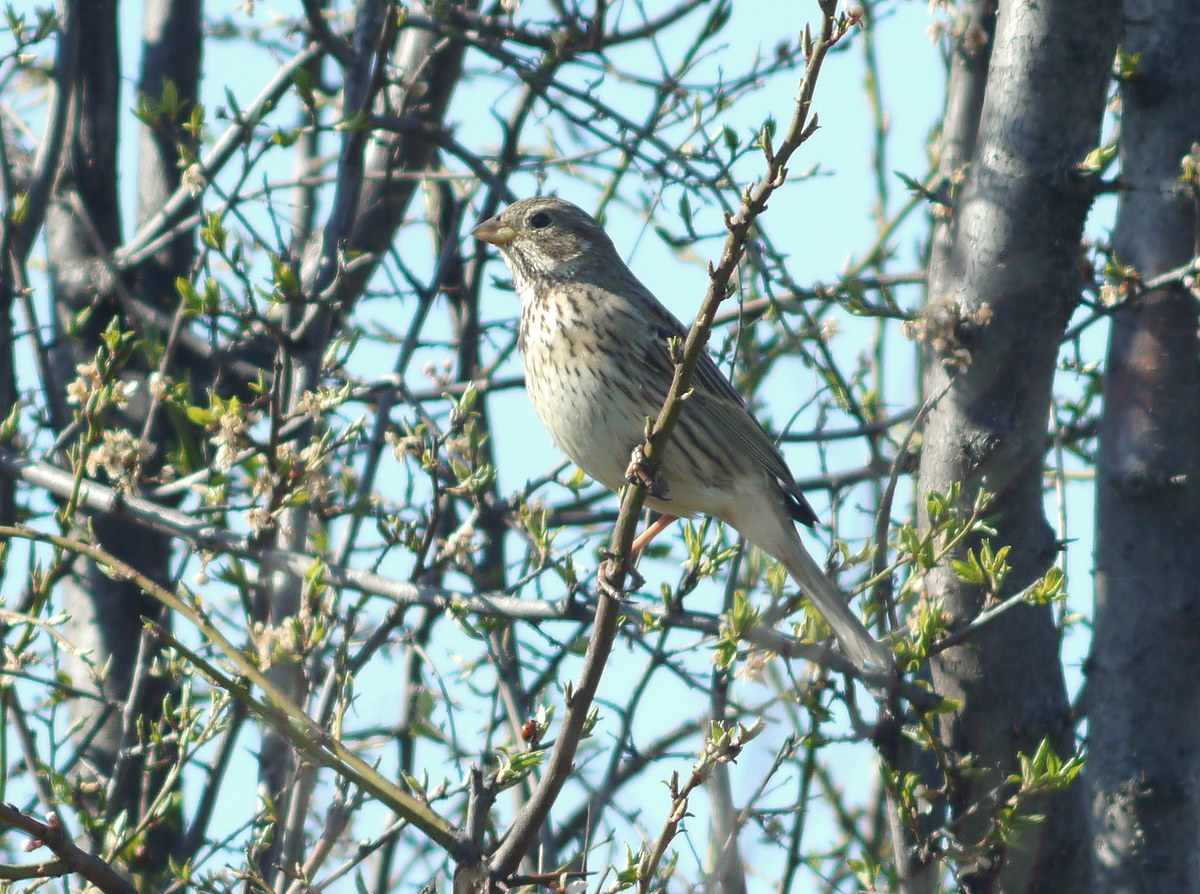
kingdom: Animalia
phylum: Chordata
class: Aves
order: Passeriformes
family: Emberizidae
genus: Emberiza
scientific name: Emberiza calandra
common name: Corn bunting
